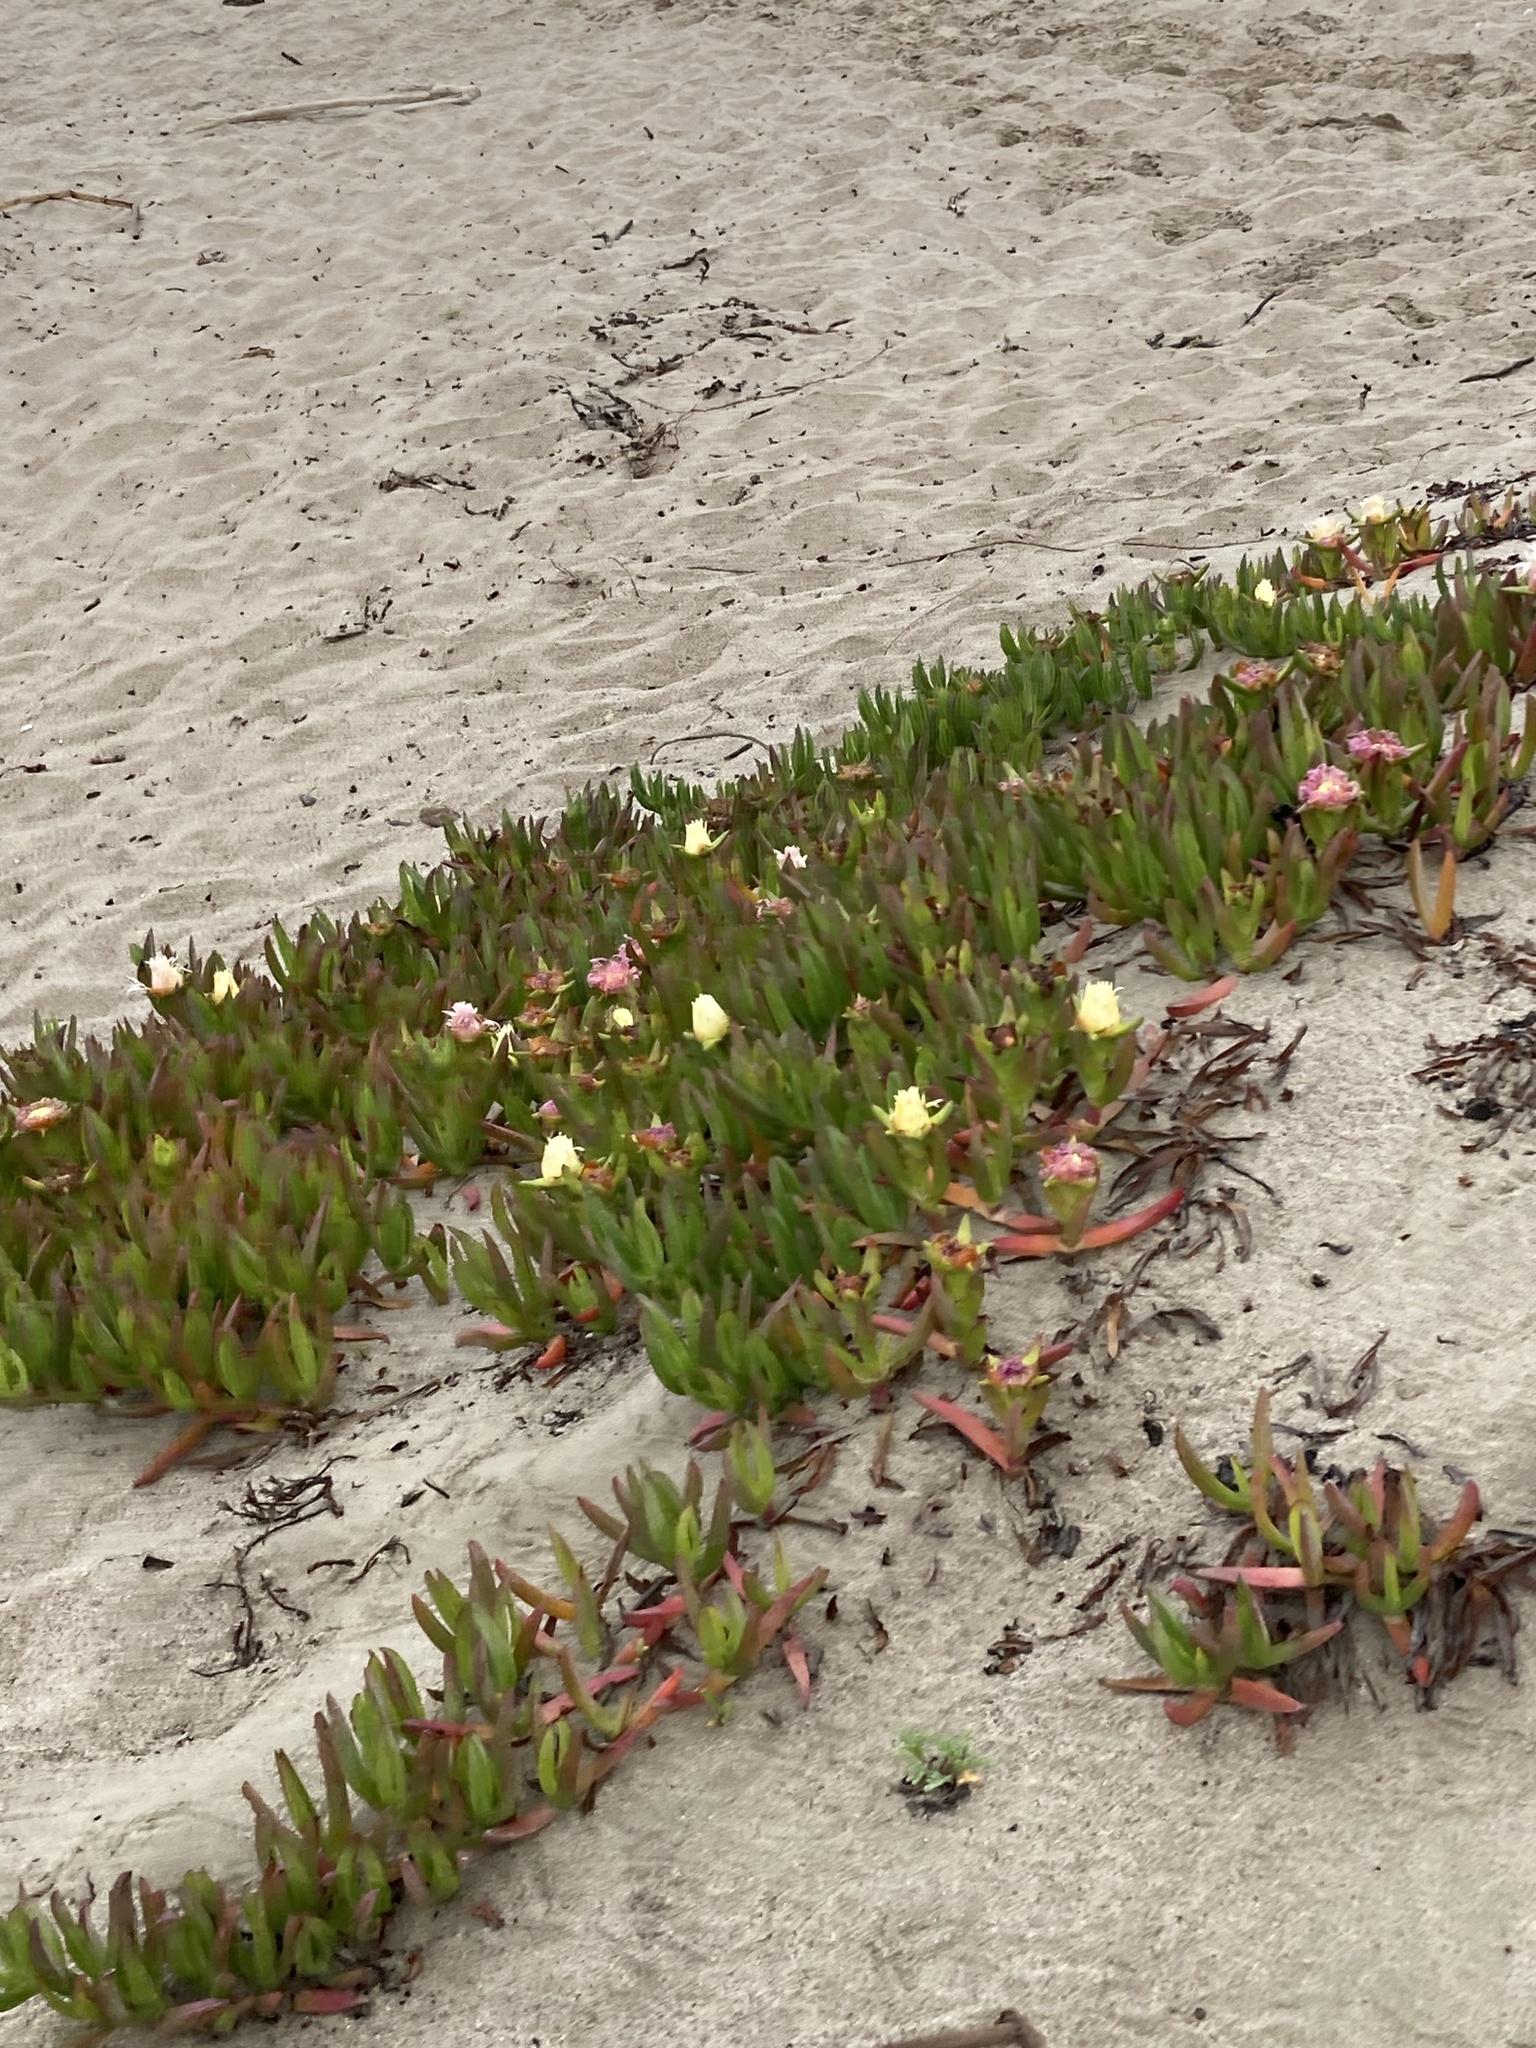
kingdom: Plantae
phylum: Tracheophyta
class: Magnoliopsida
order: Caryophyllales
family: Aizoaceae
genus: Carpobrotus
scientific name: Carpobrotus edulis
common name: Hottentot-fig
